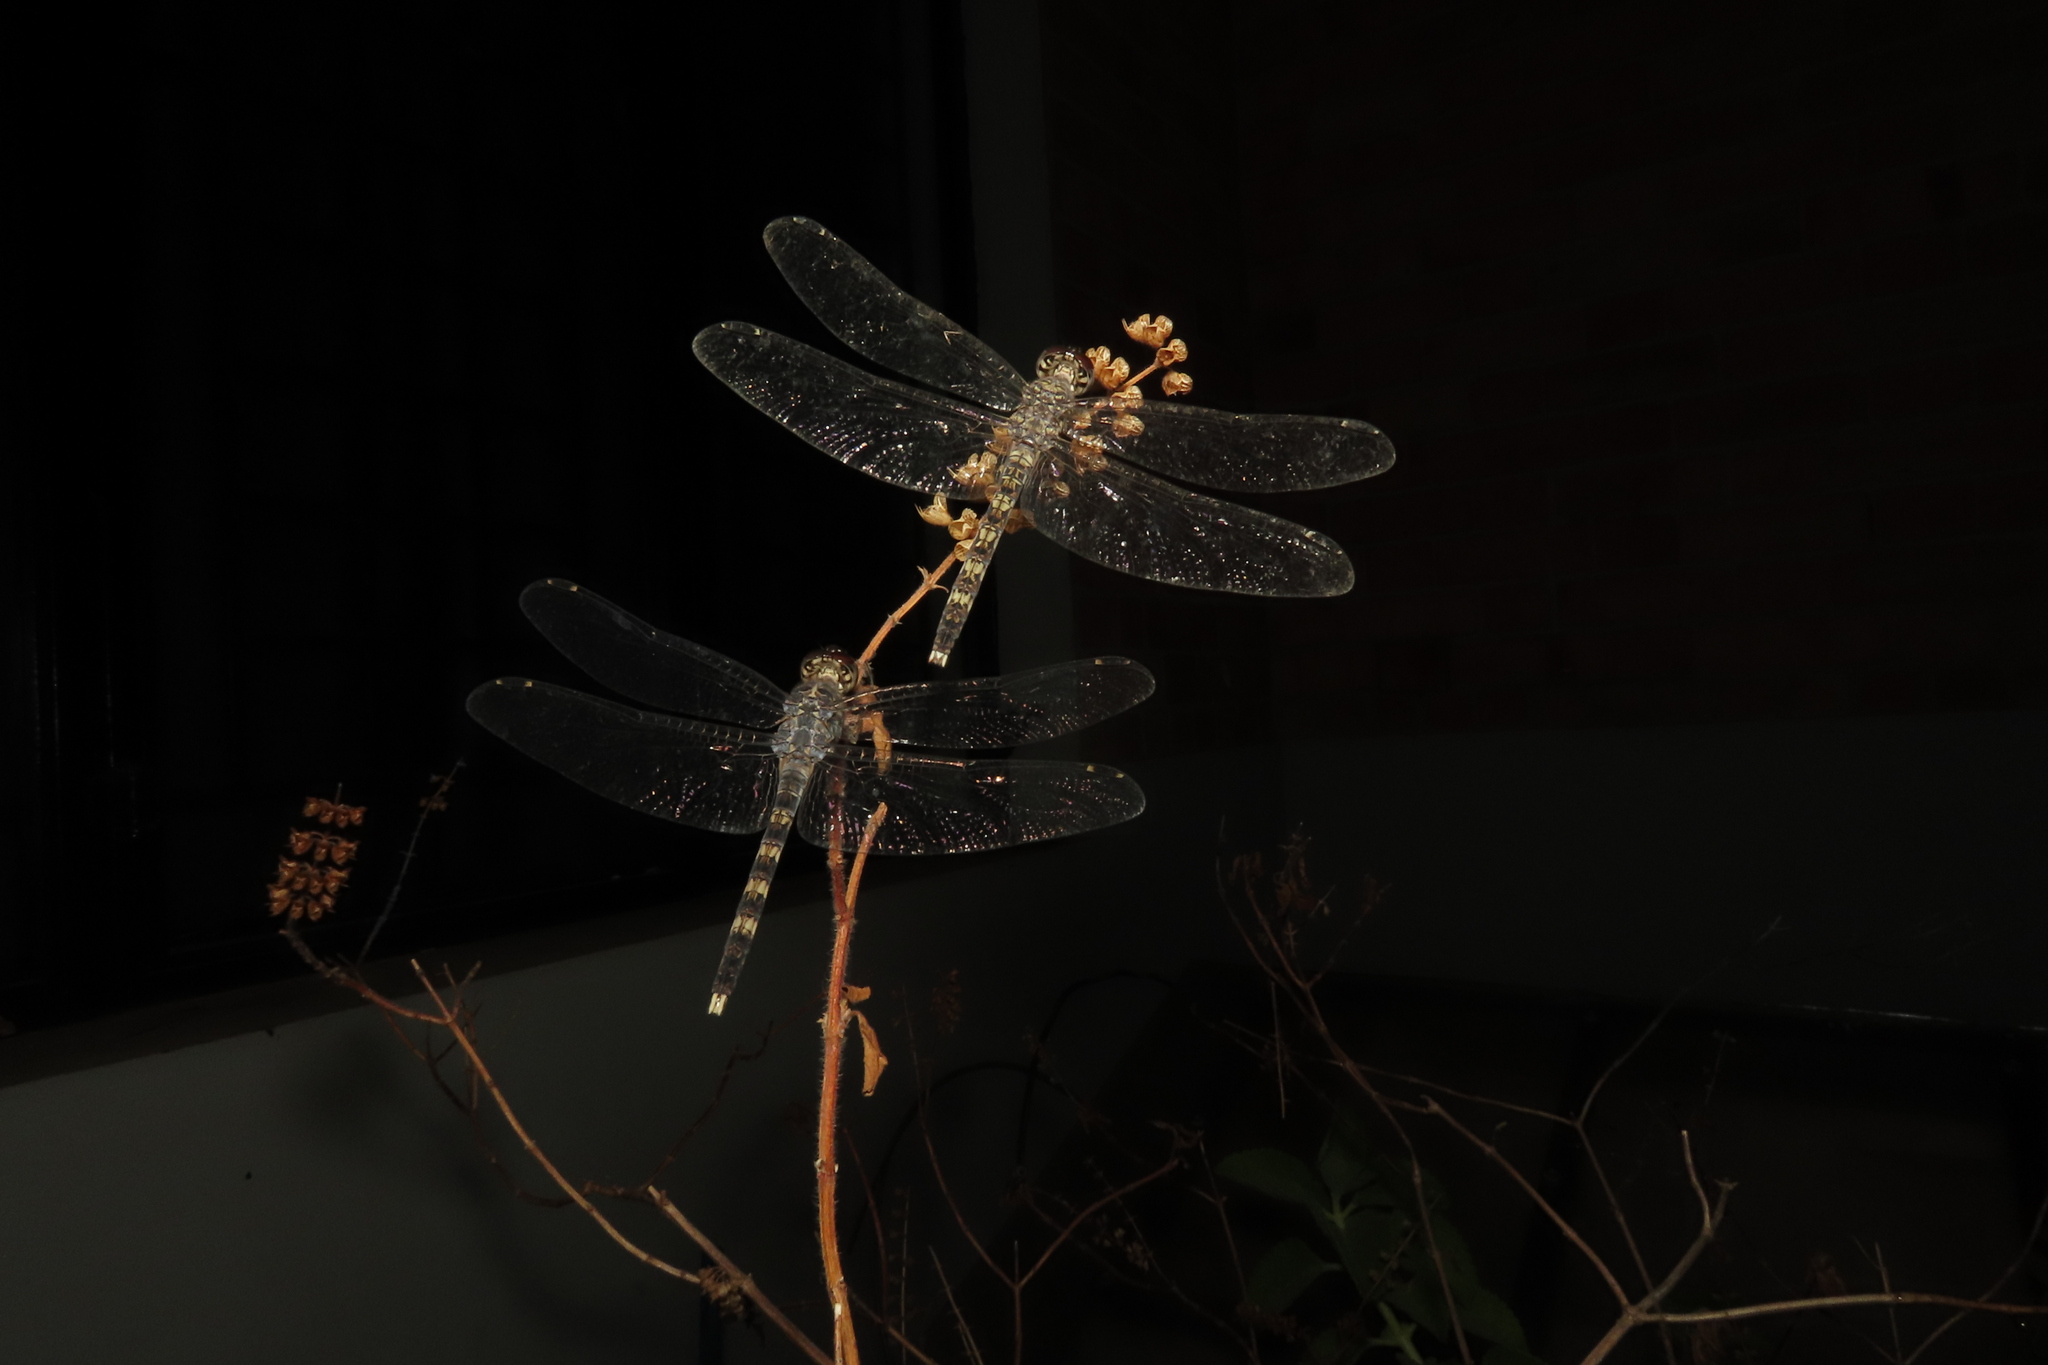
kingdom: Animalia
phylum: Arthropoda
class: Insecta
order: Odonata
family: Libellulidae
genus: Bradinopyga
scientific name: Bradinopyga geminata
